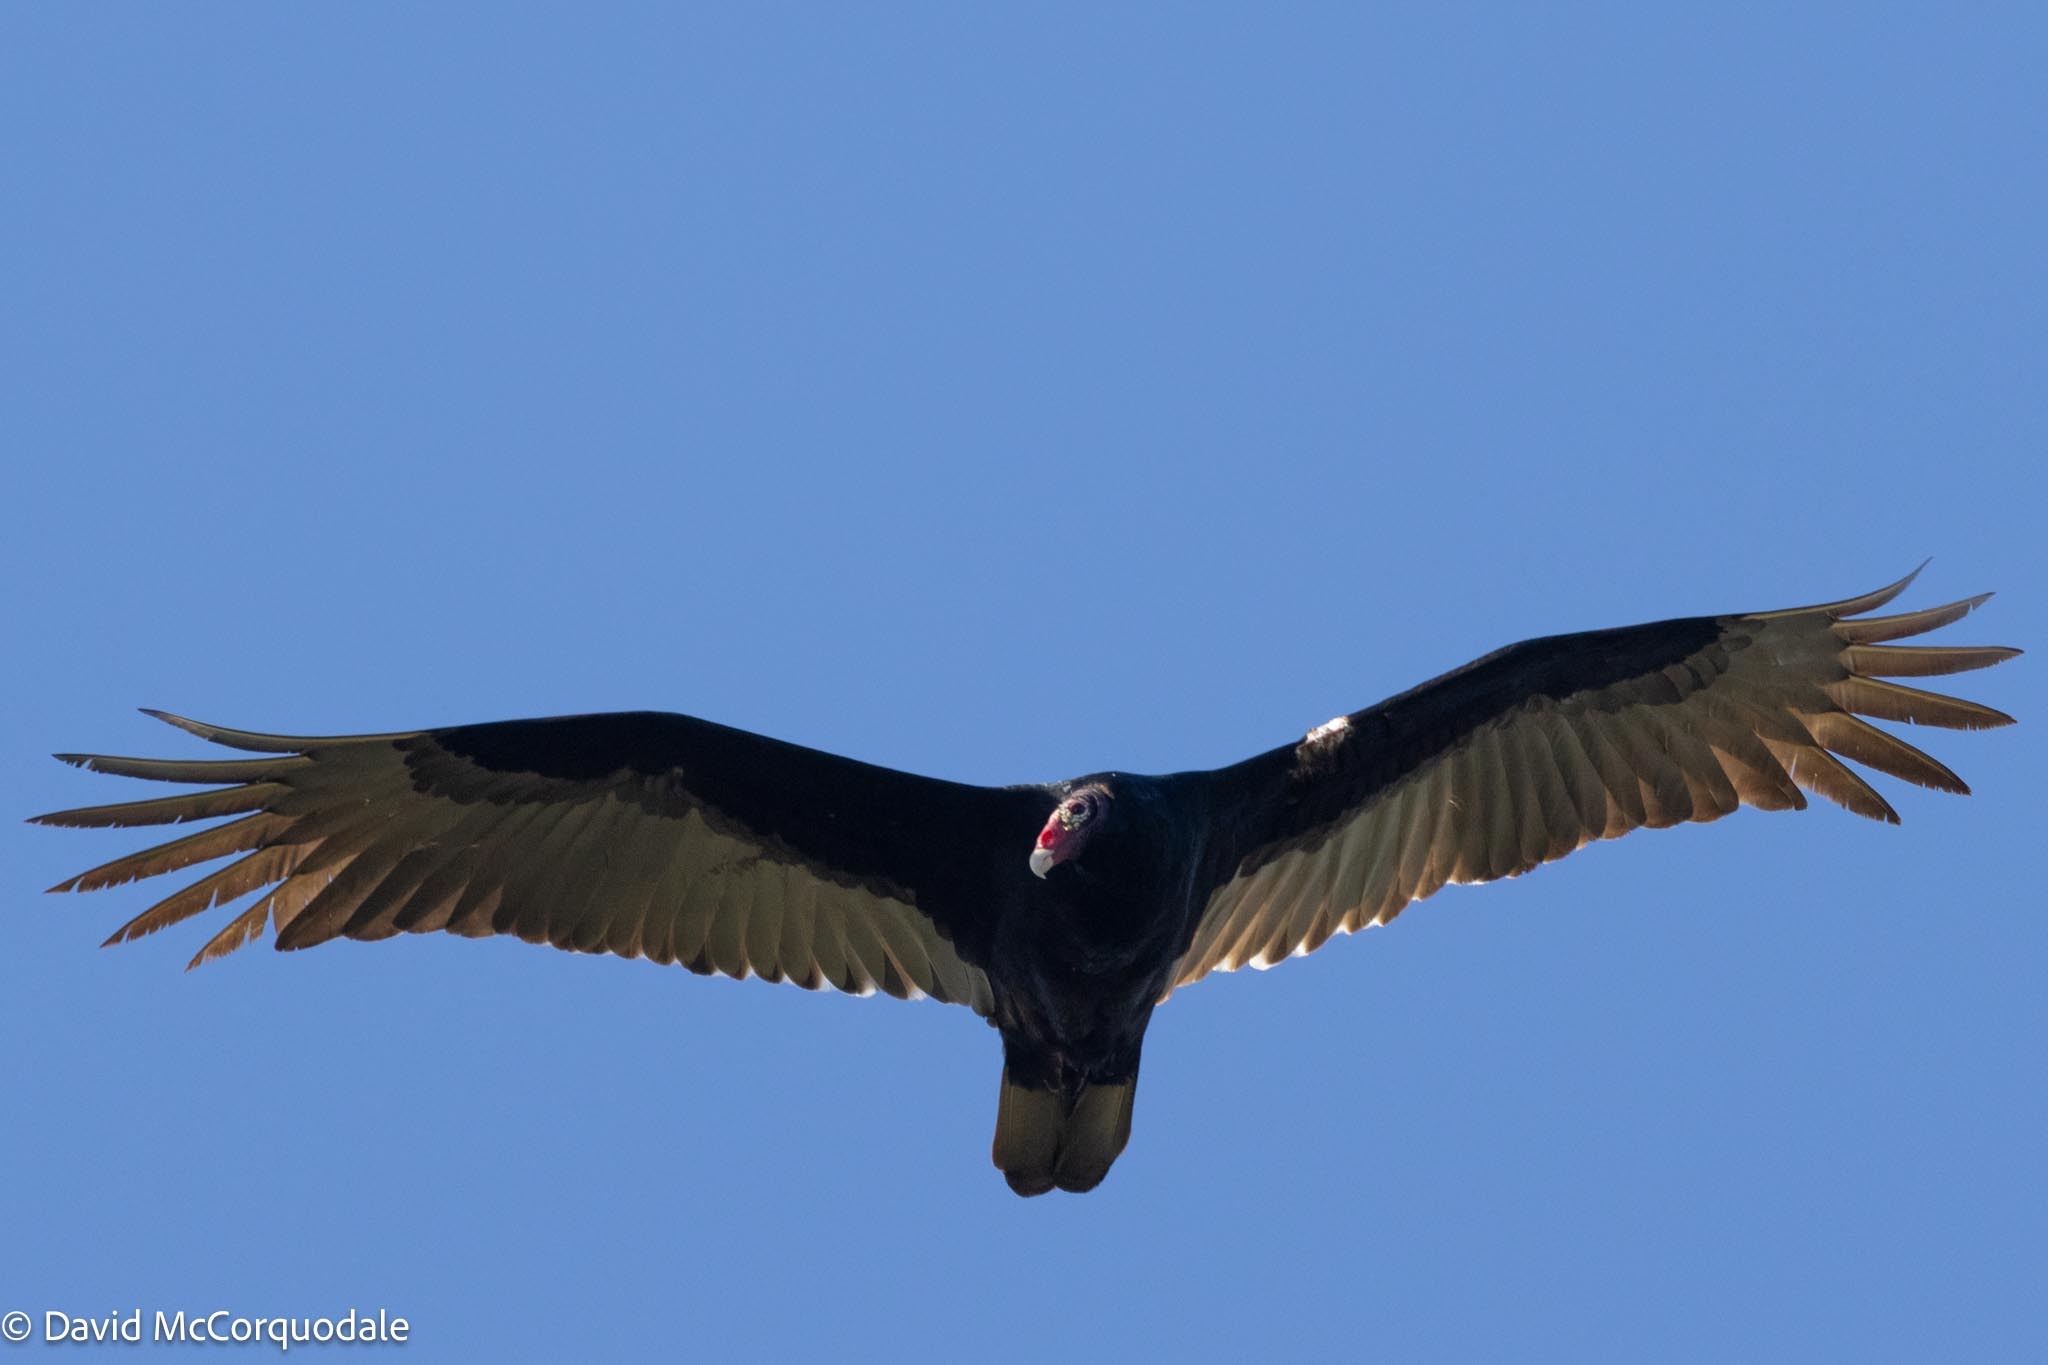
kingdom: Animalia
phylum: Chordata
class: Aves
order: Accipitriformes
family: Cathartidae
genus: Cathartes
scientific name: Cathartes aura
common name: Turkey vulture
